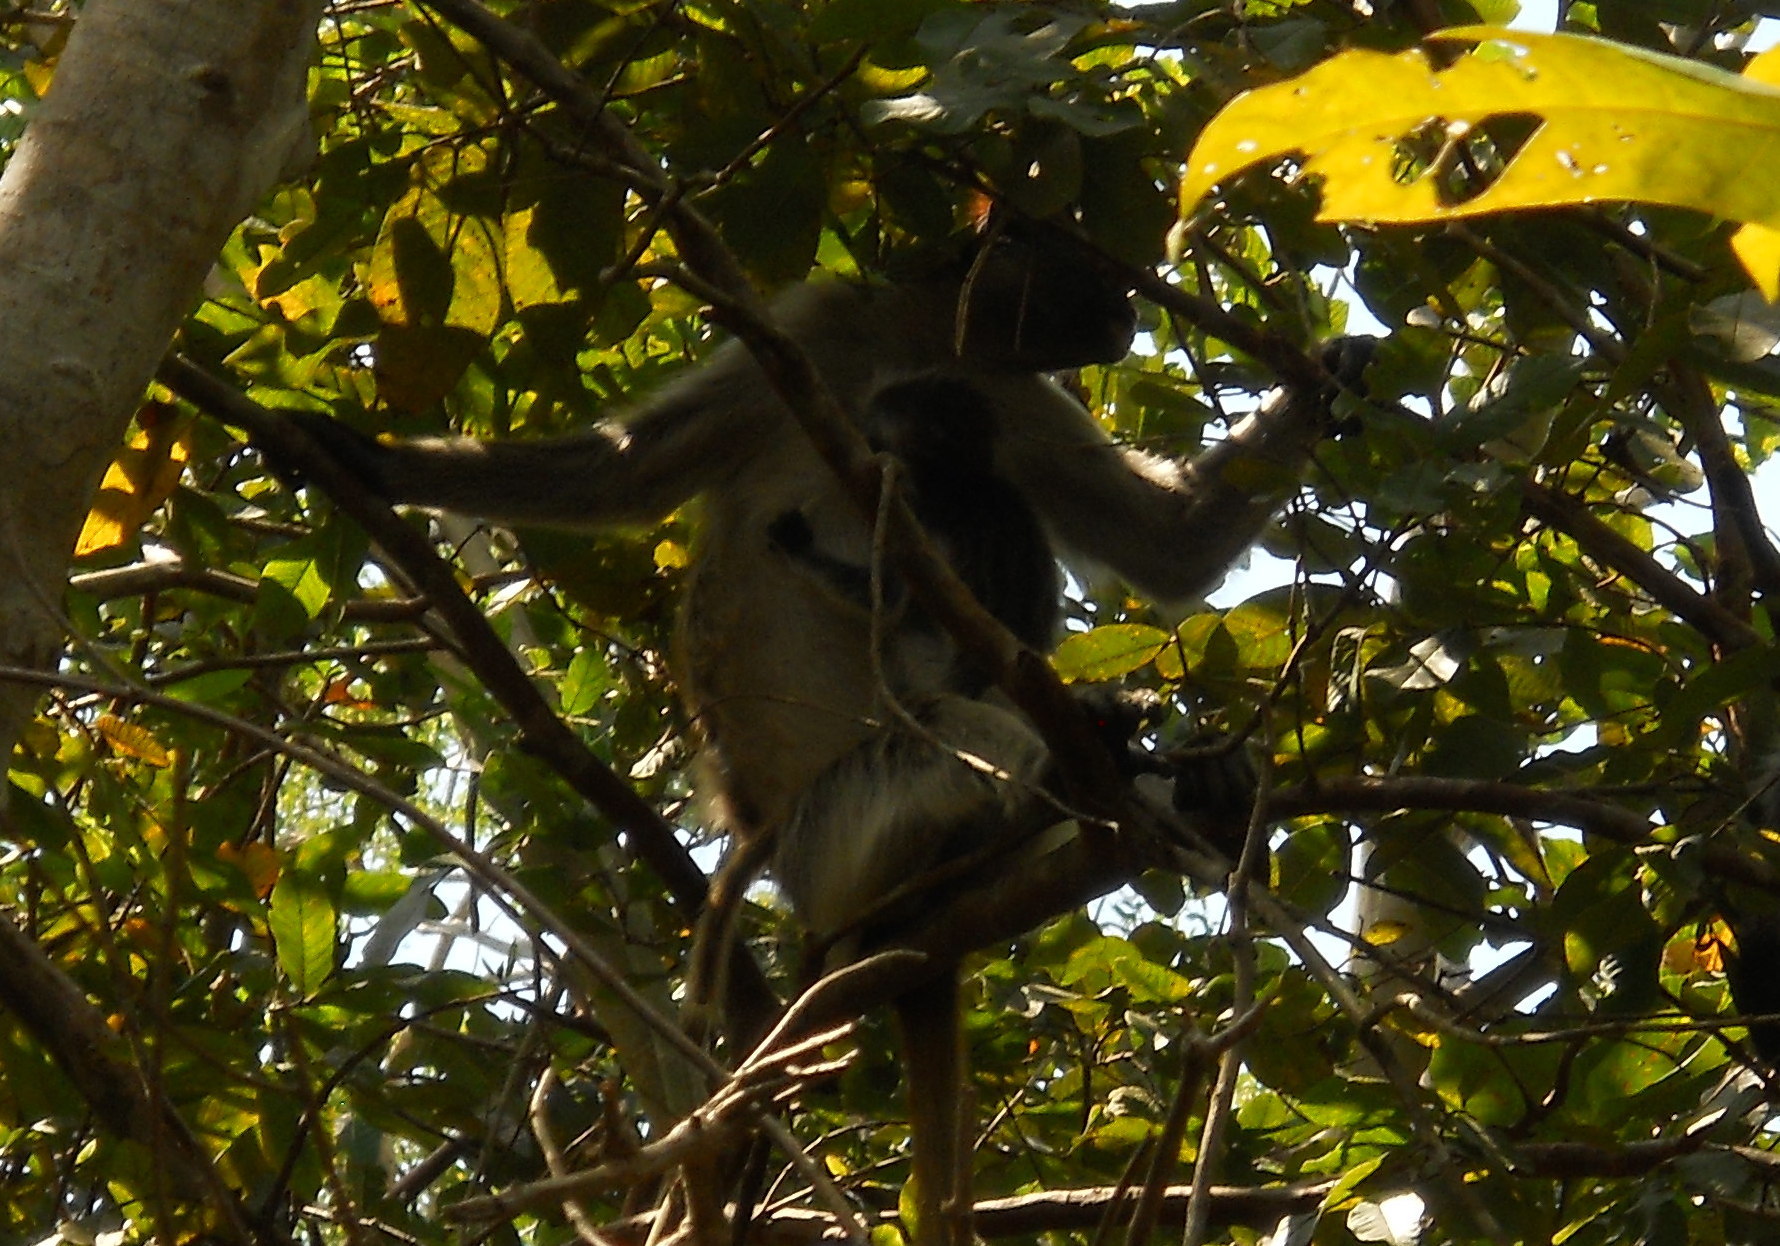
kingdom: Animalia
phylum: Chordata
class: Mammalia
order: Primates
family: Cercopithecidae
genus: Piliocolobus
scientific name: Piliocolobus kirkii
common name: Zanzibar red colobus
